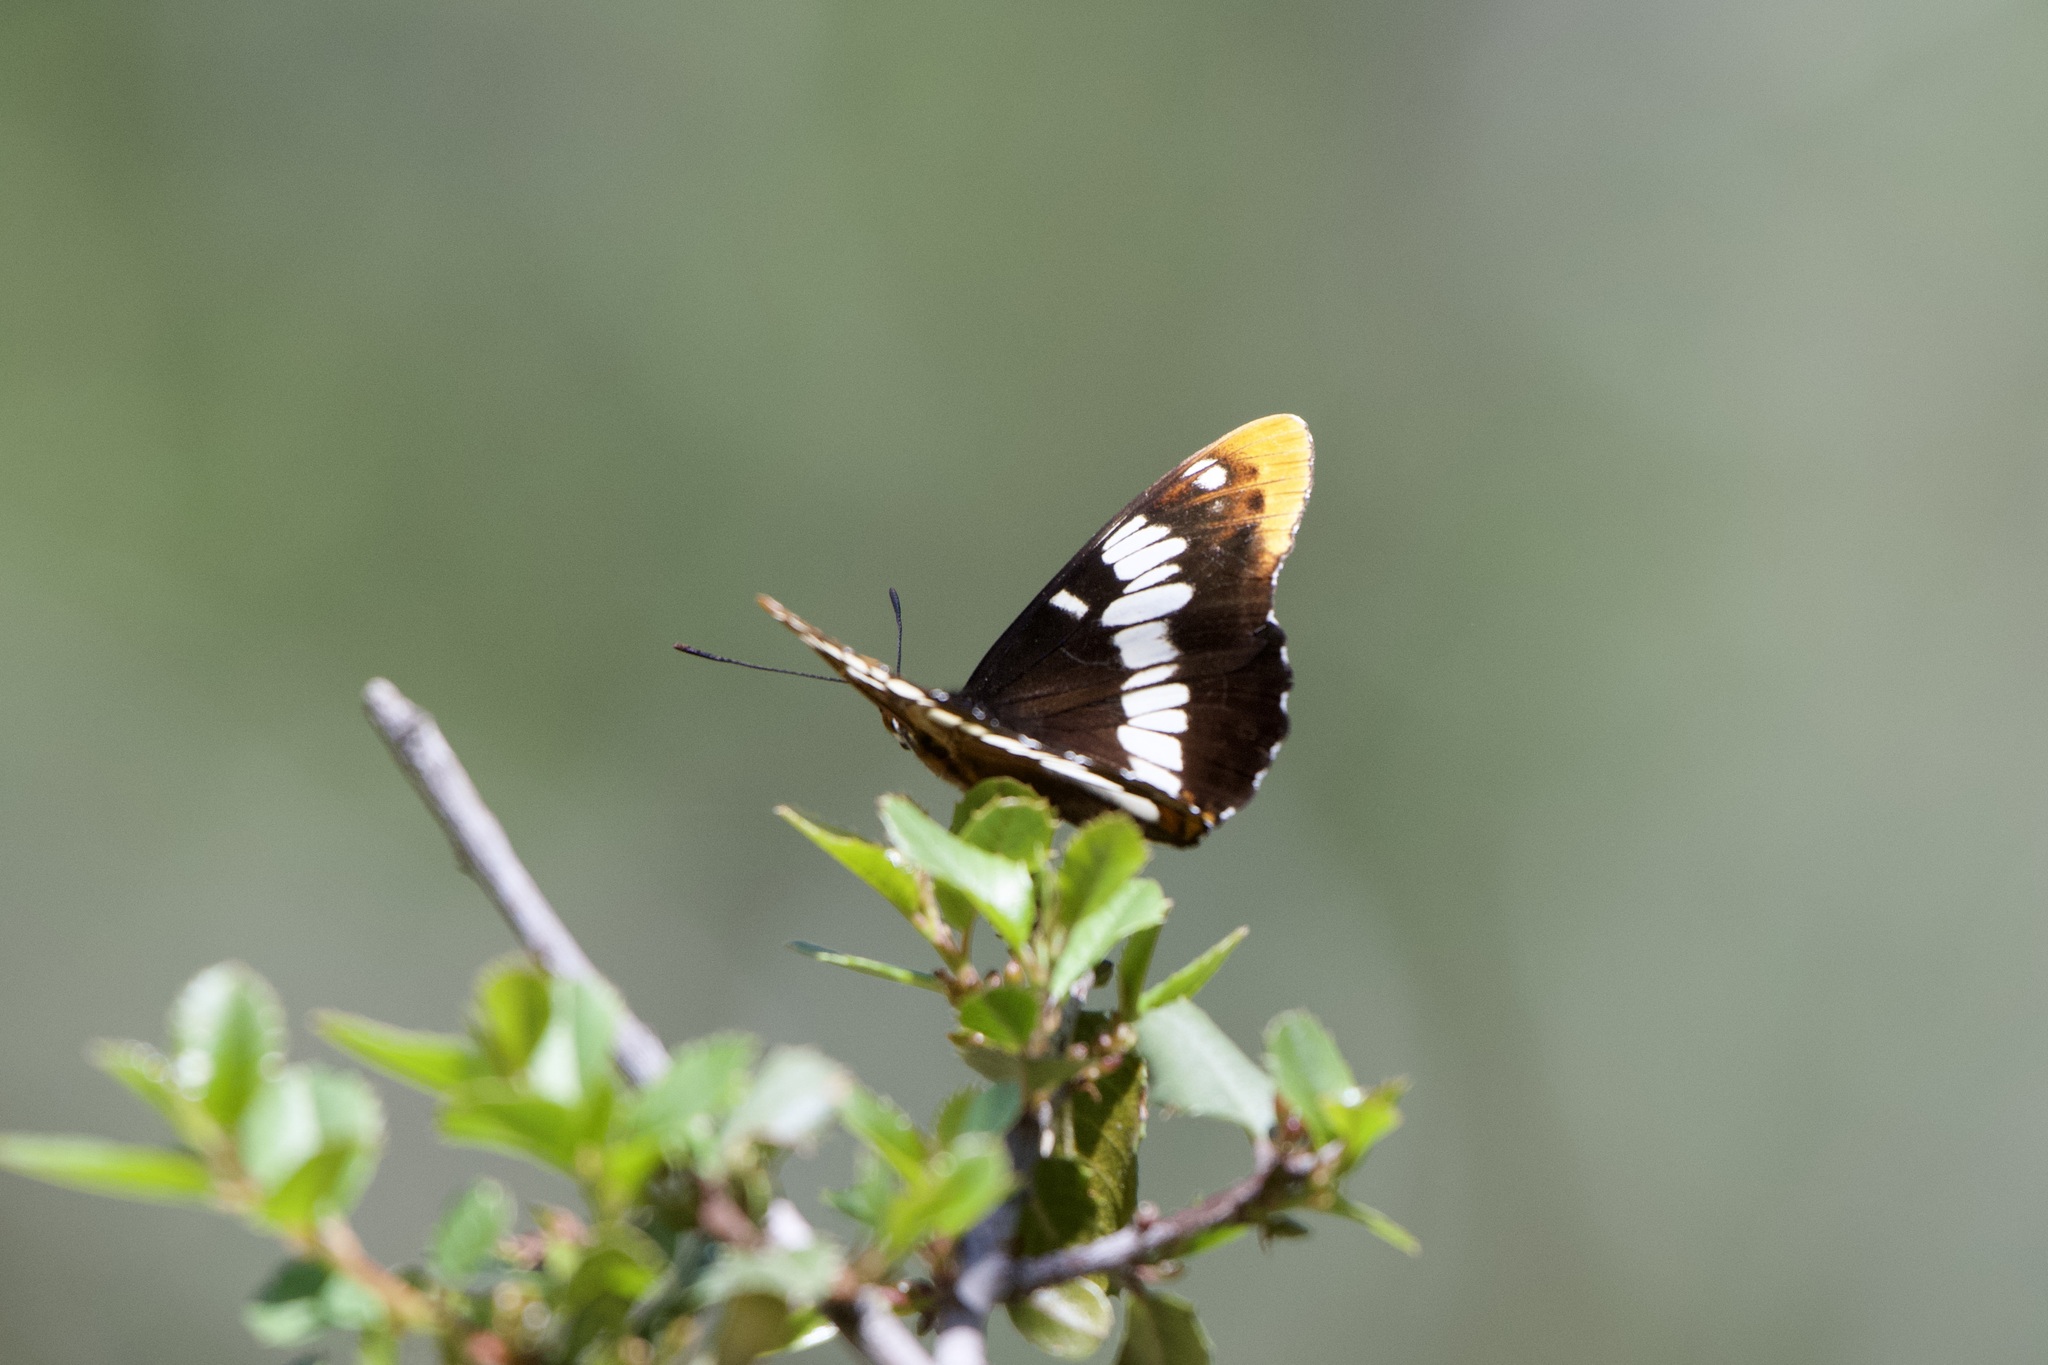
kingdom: Animalia
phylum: Arthropoda
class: Insecta
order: Lepidoptera
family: Nymphalidae
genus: Limenitis
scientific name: Limenitis lorquini
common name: Lorquin's admiral
